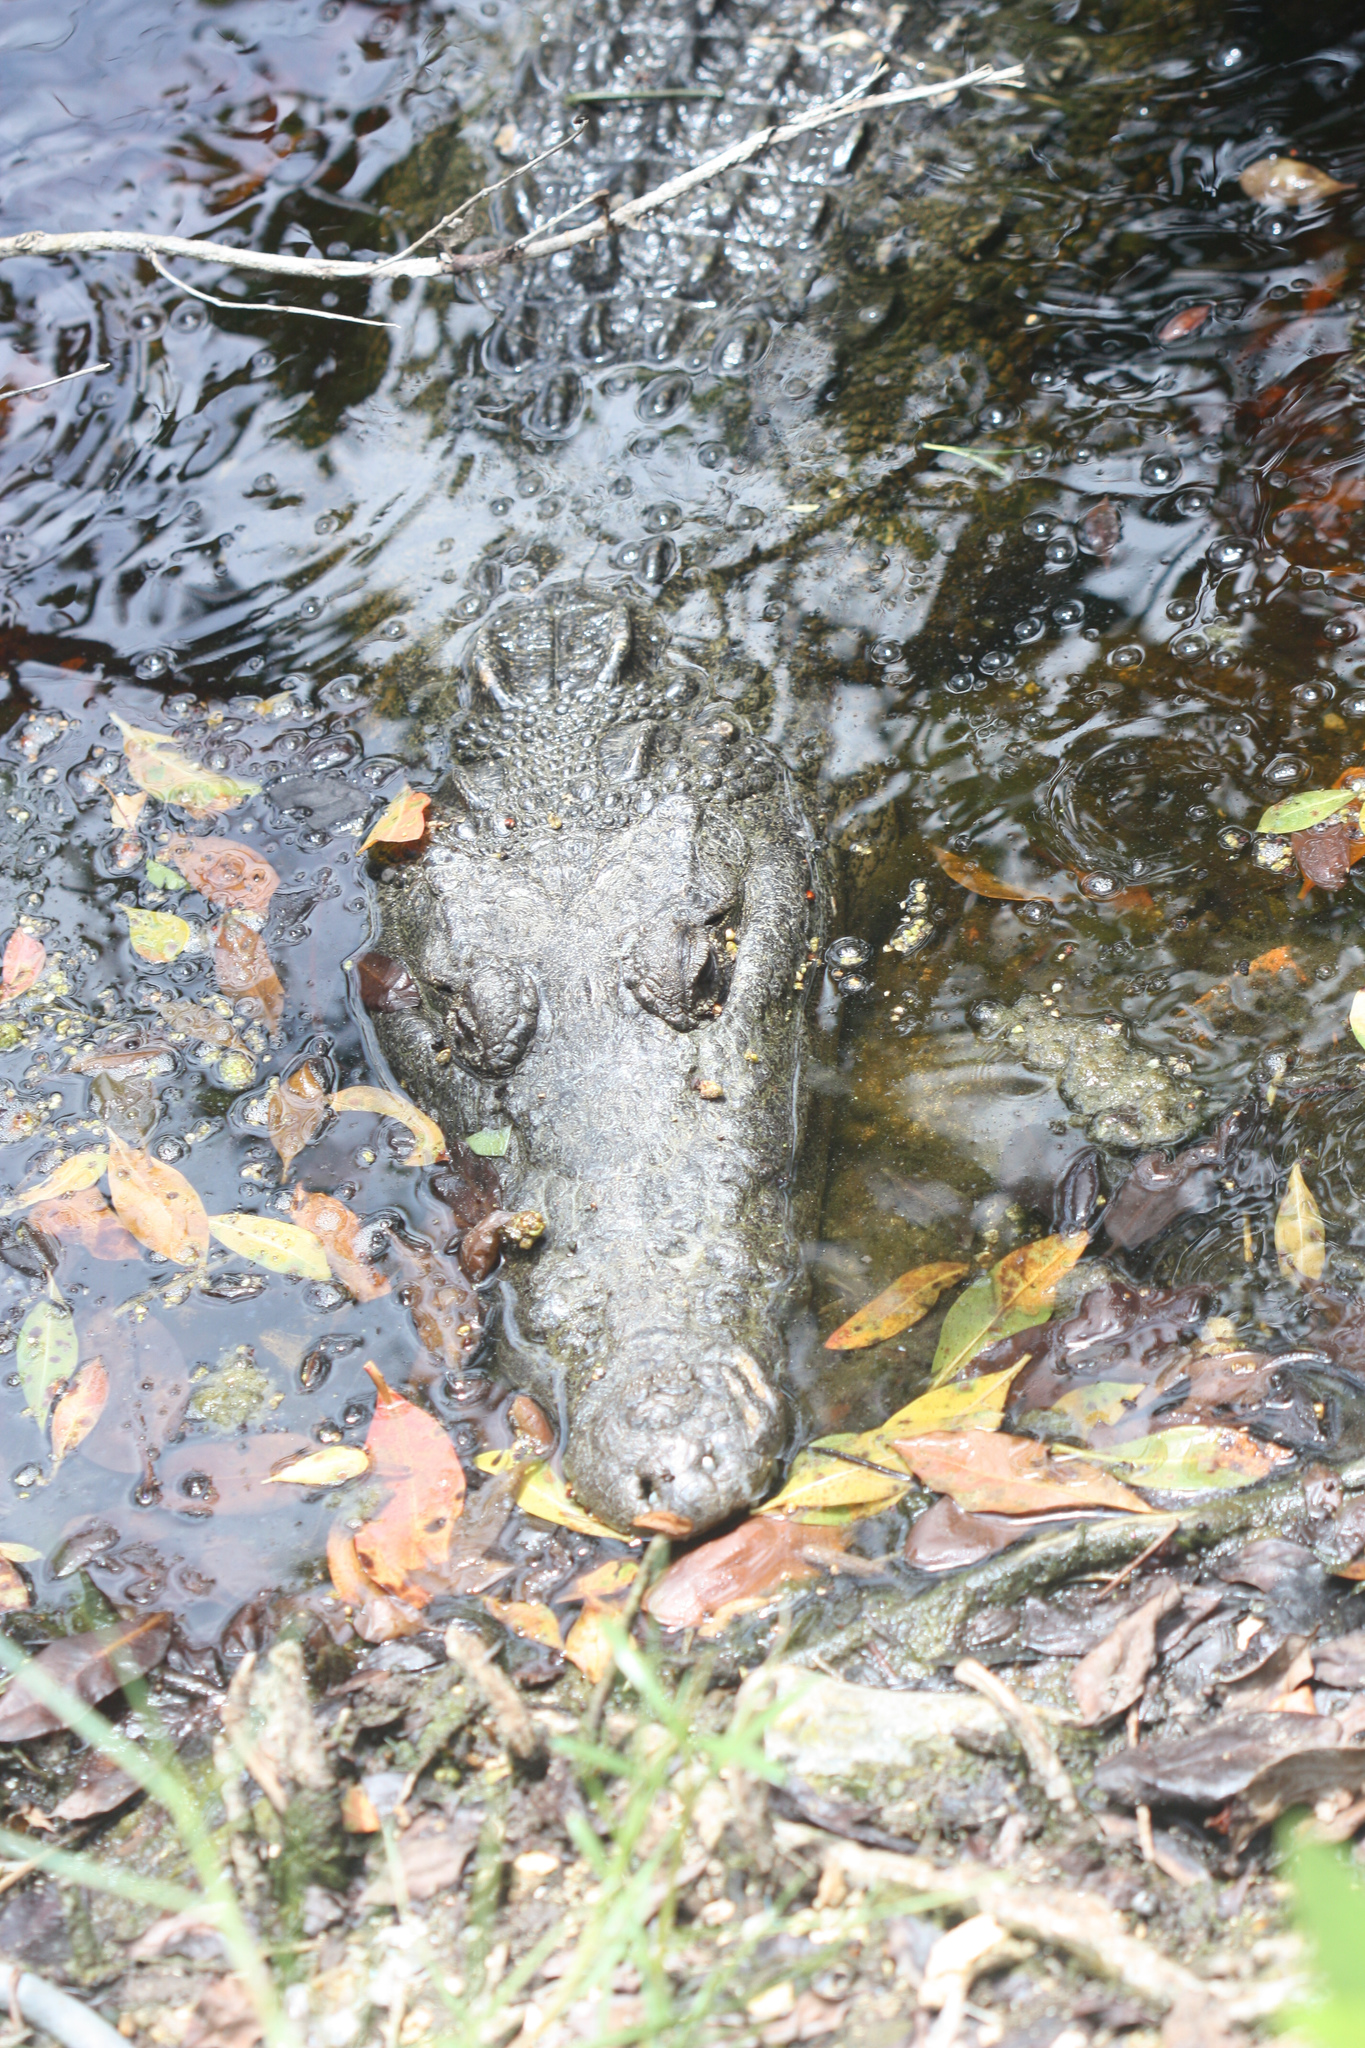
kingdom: Animalia
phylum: Chordata
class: Crocodylia
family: Crocodylidae
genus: Crocodylus
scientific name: Crocodylus moreletii
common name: Morelet's crocodile
